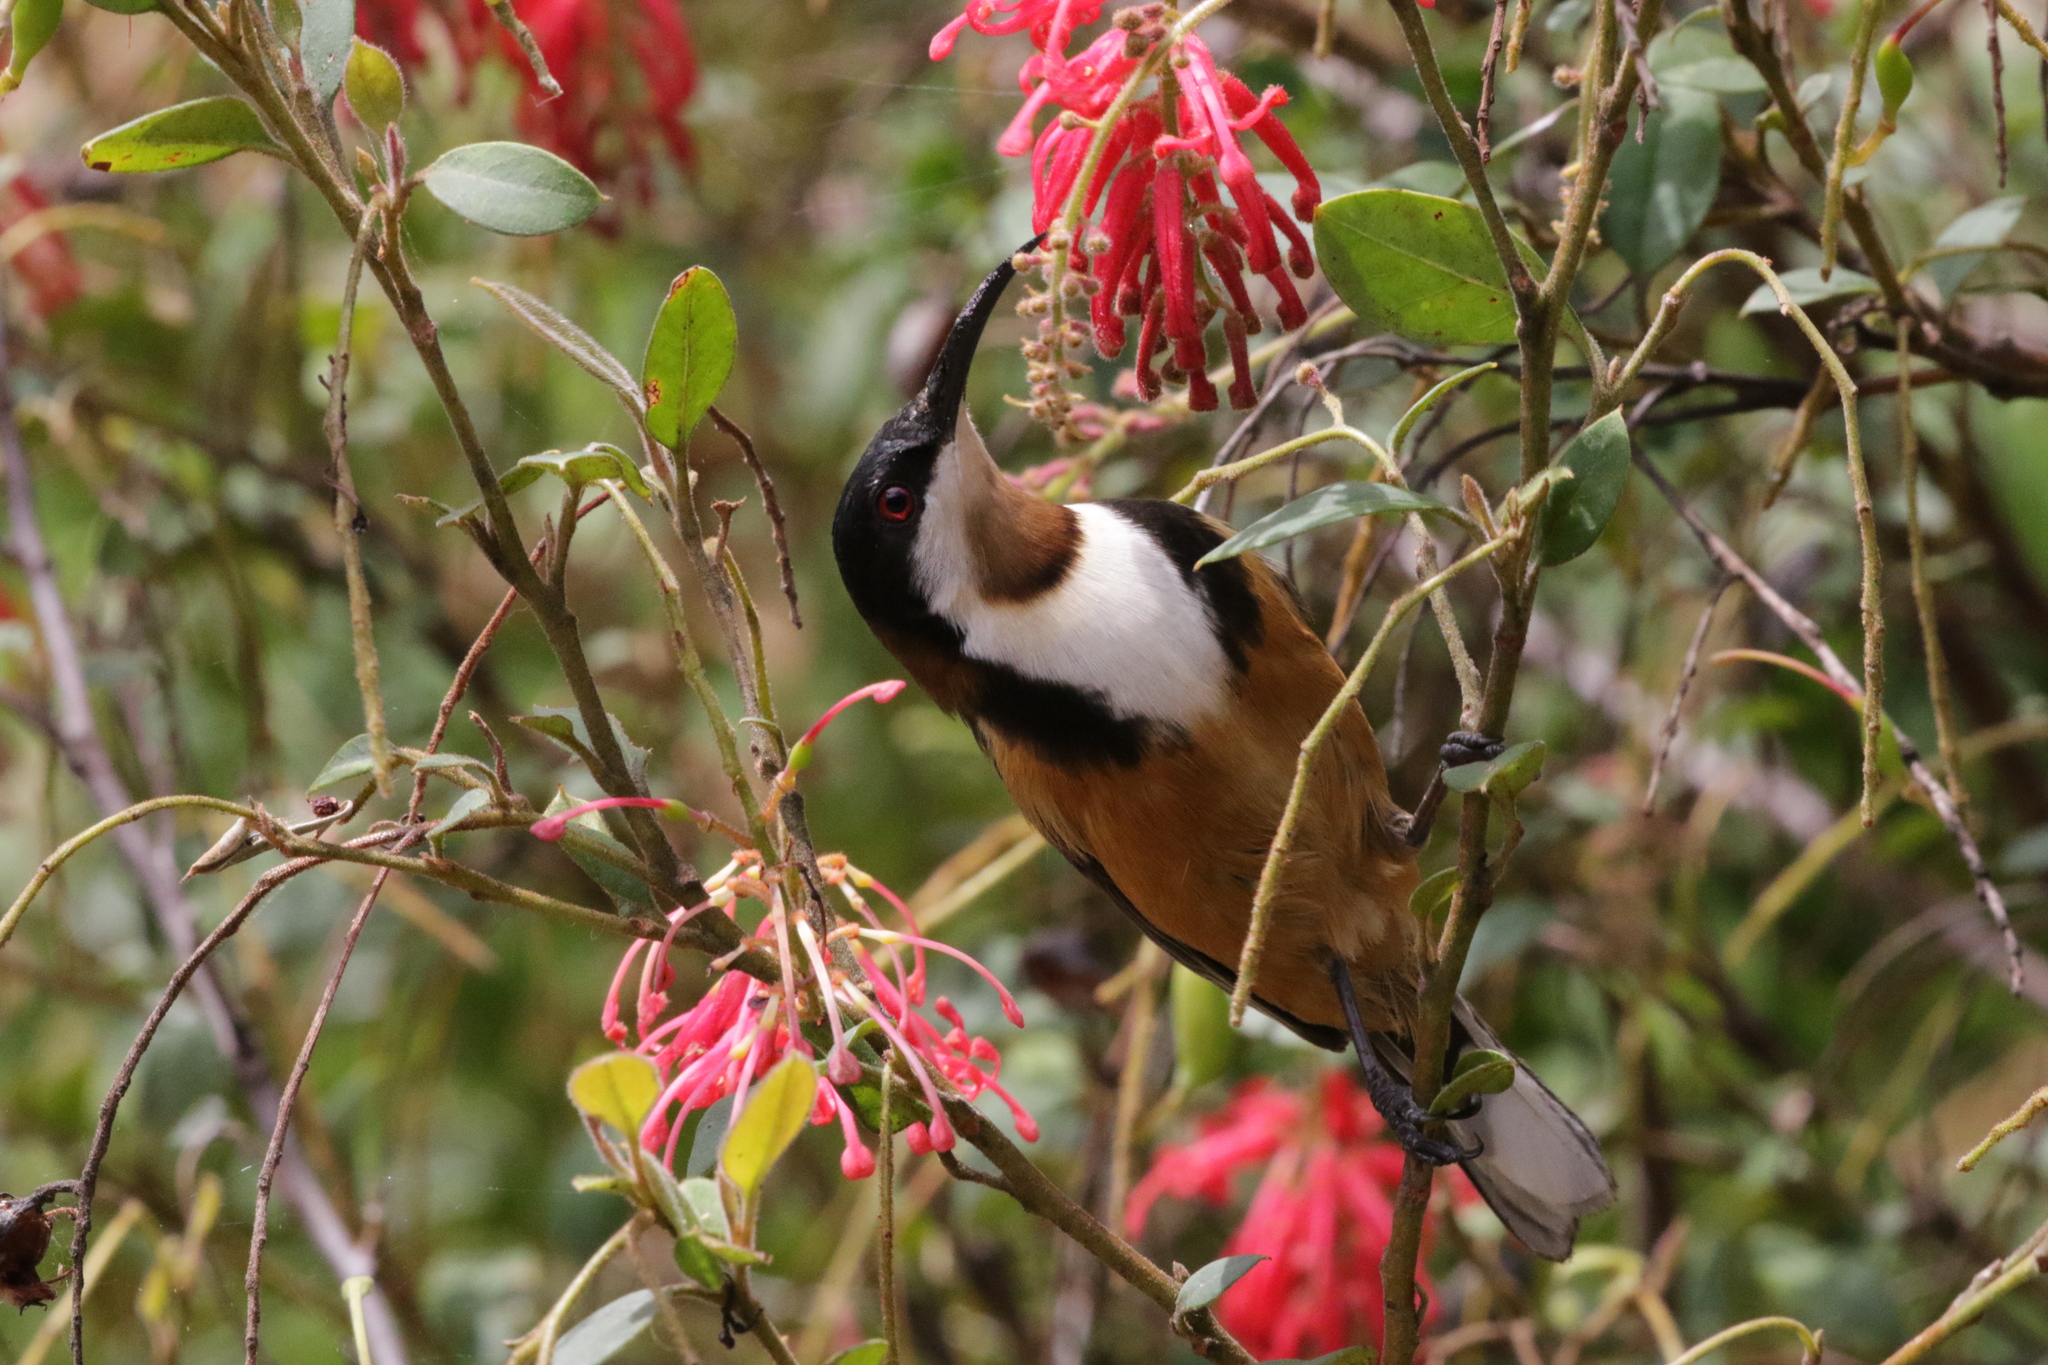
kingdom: Animalia
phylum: Chordata
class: Aves
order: Passeriformes
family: Meliphagidae
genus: Acanthorhynchus
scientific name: Acanthorhynchus tenuirostris
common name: Eastern spinebill
